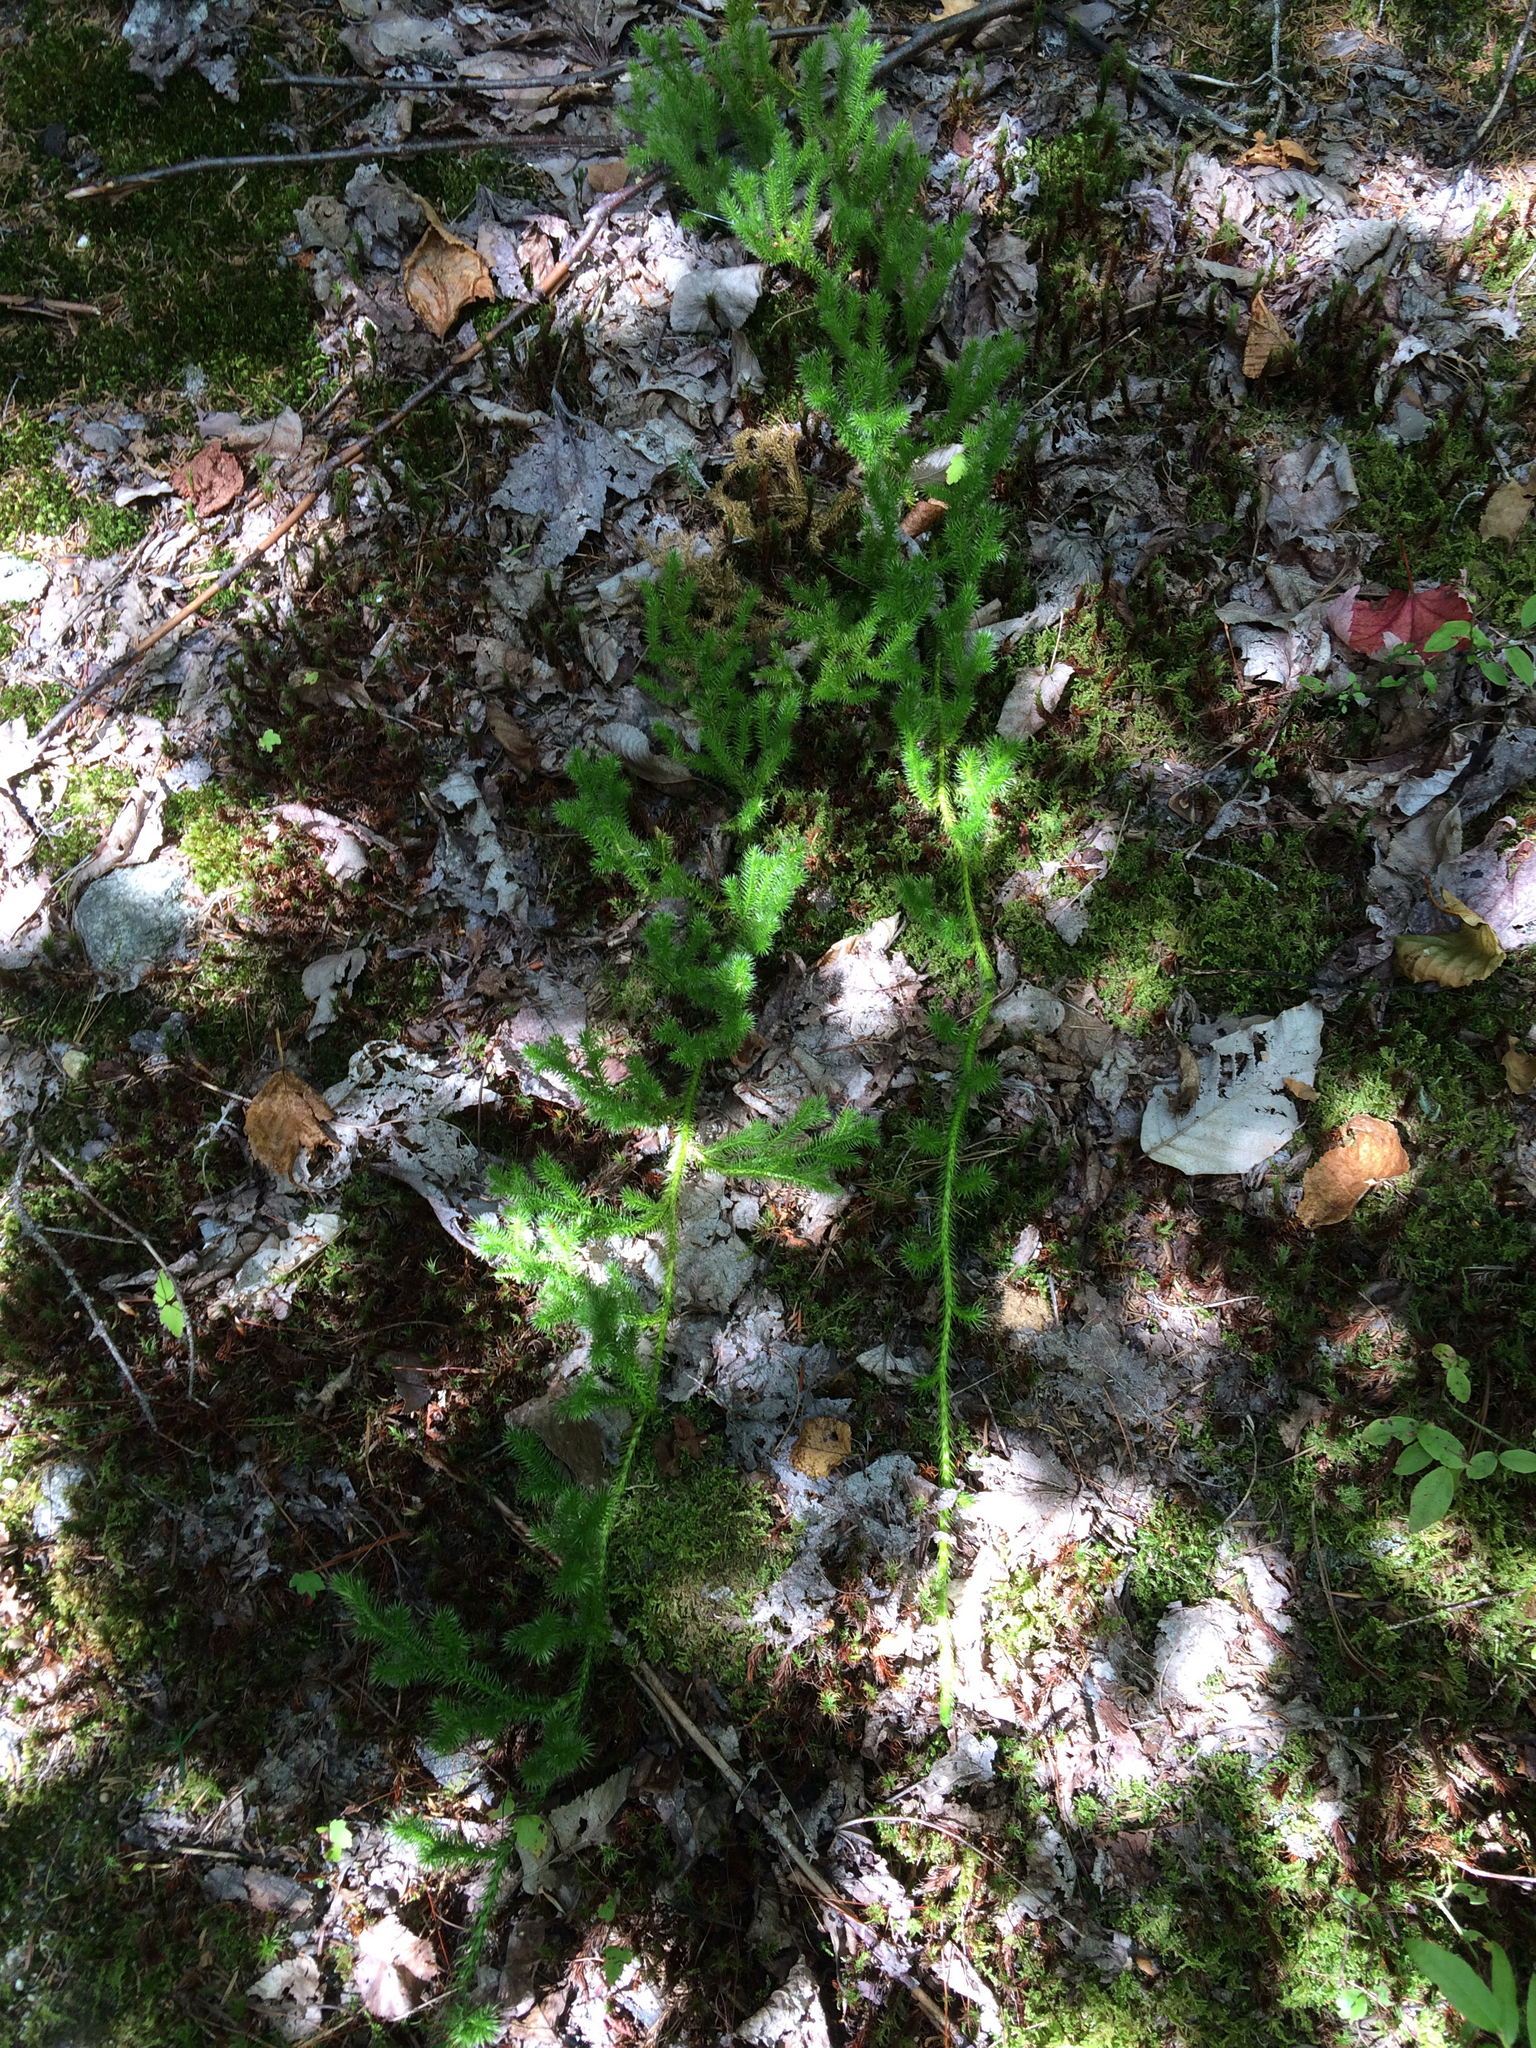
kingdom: Plantae
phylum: Tracheophyta
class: Lycopodiopsida
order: Lycopodiales
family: Lycopodiaceae
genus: Lycopodium
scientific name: Lycopodium clavatum
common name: Stag's-horn clubmoss
